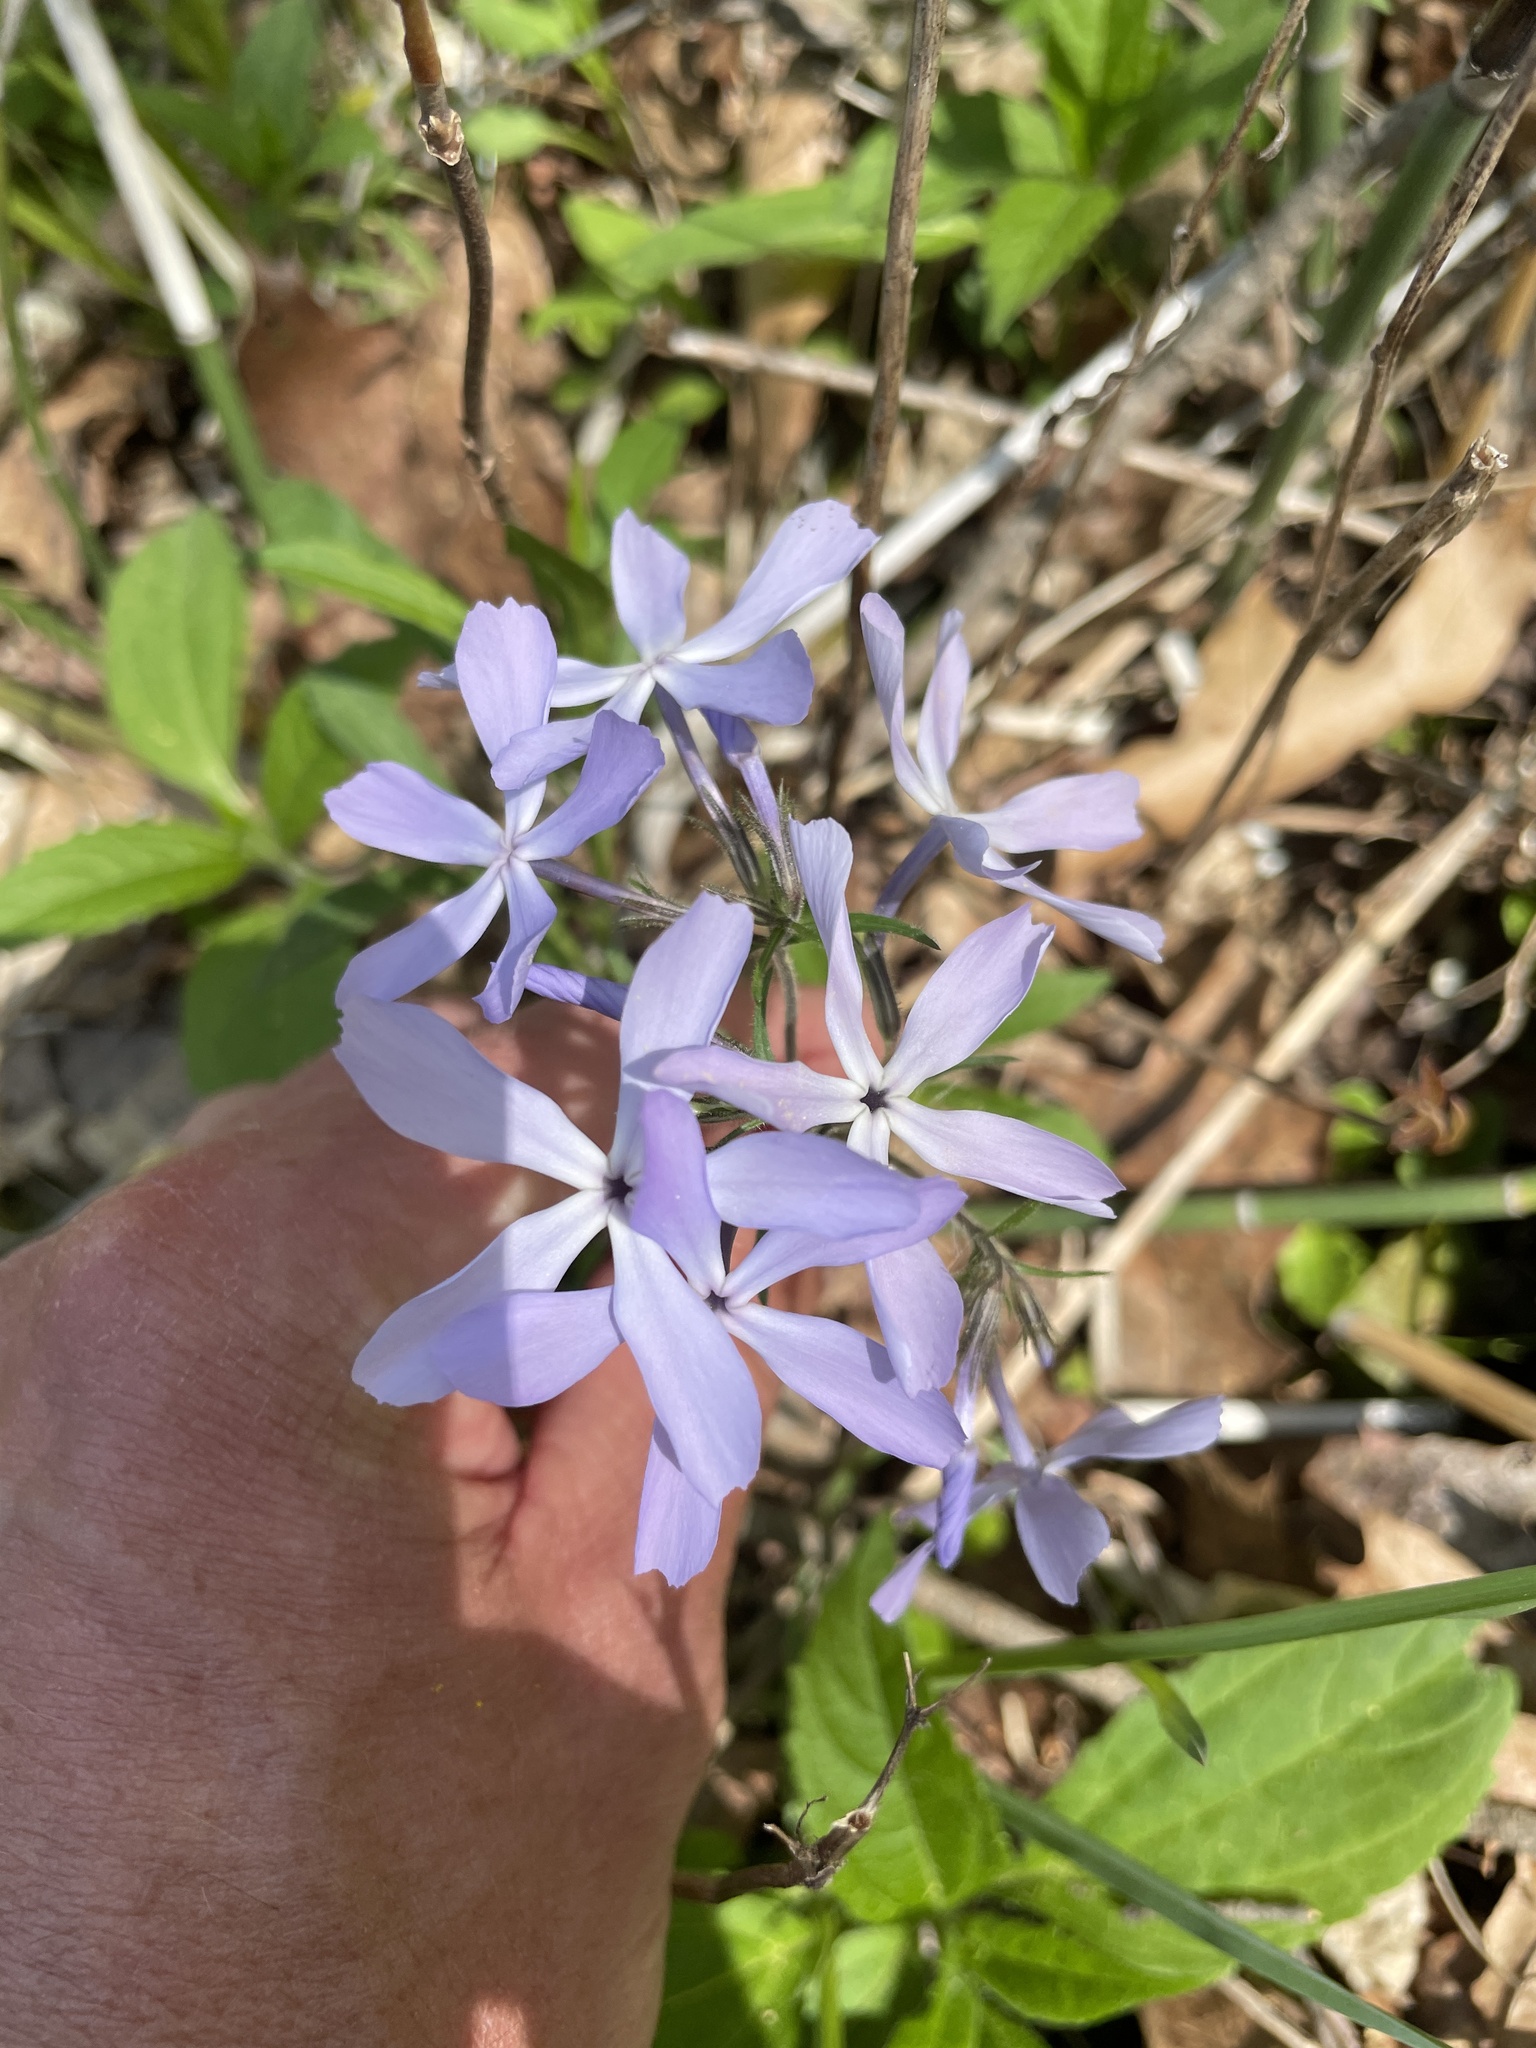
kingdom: Plantae
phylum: Tracheophyta
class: Magnoliopsida
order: Ericales
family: Polemoniaceae
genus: Phlox
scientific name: Phlox divaricata
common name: Blue phlox
